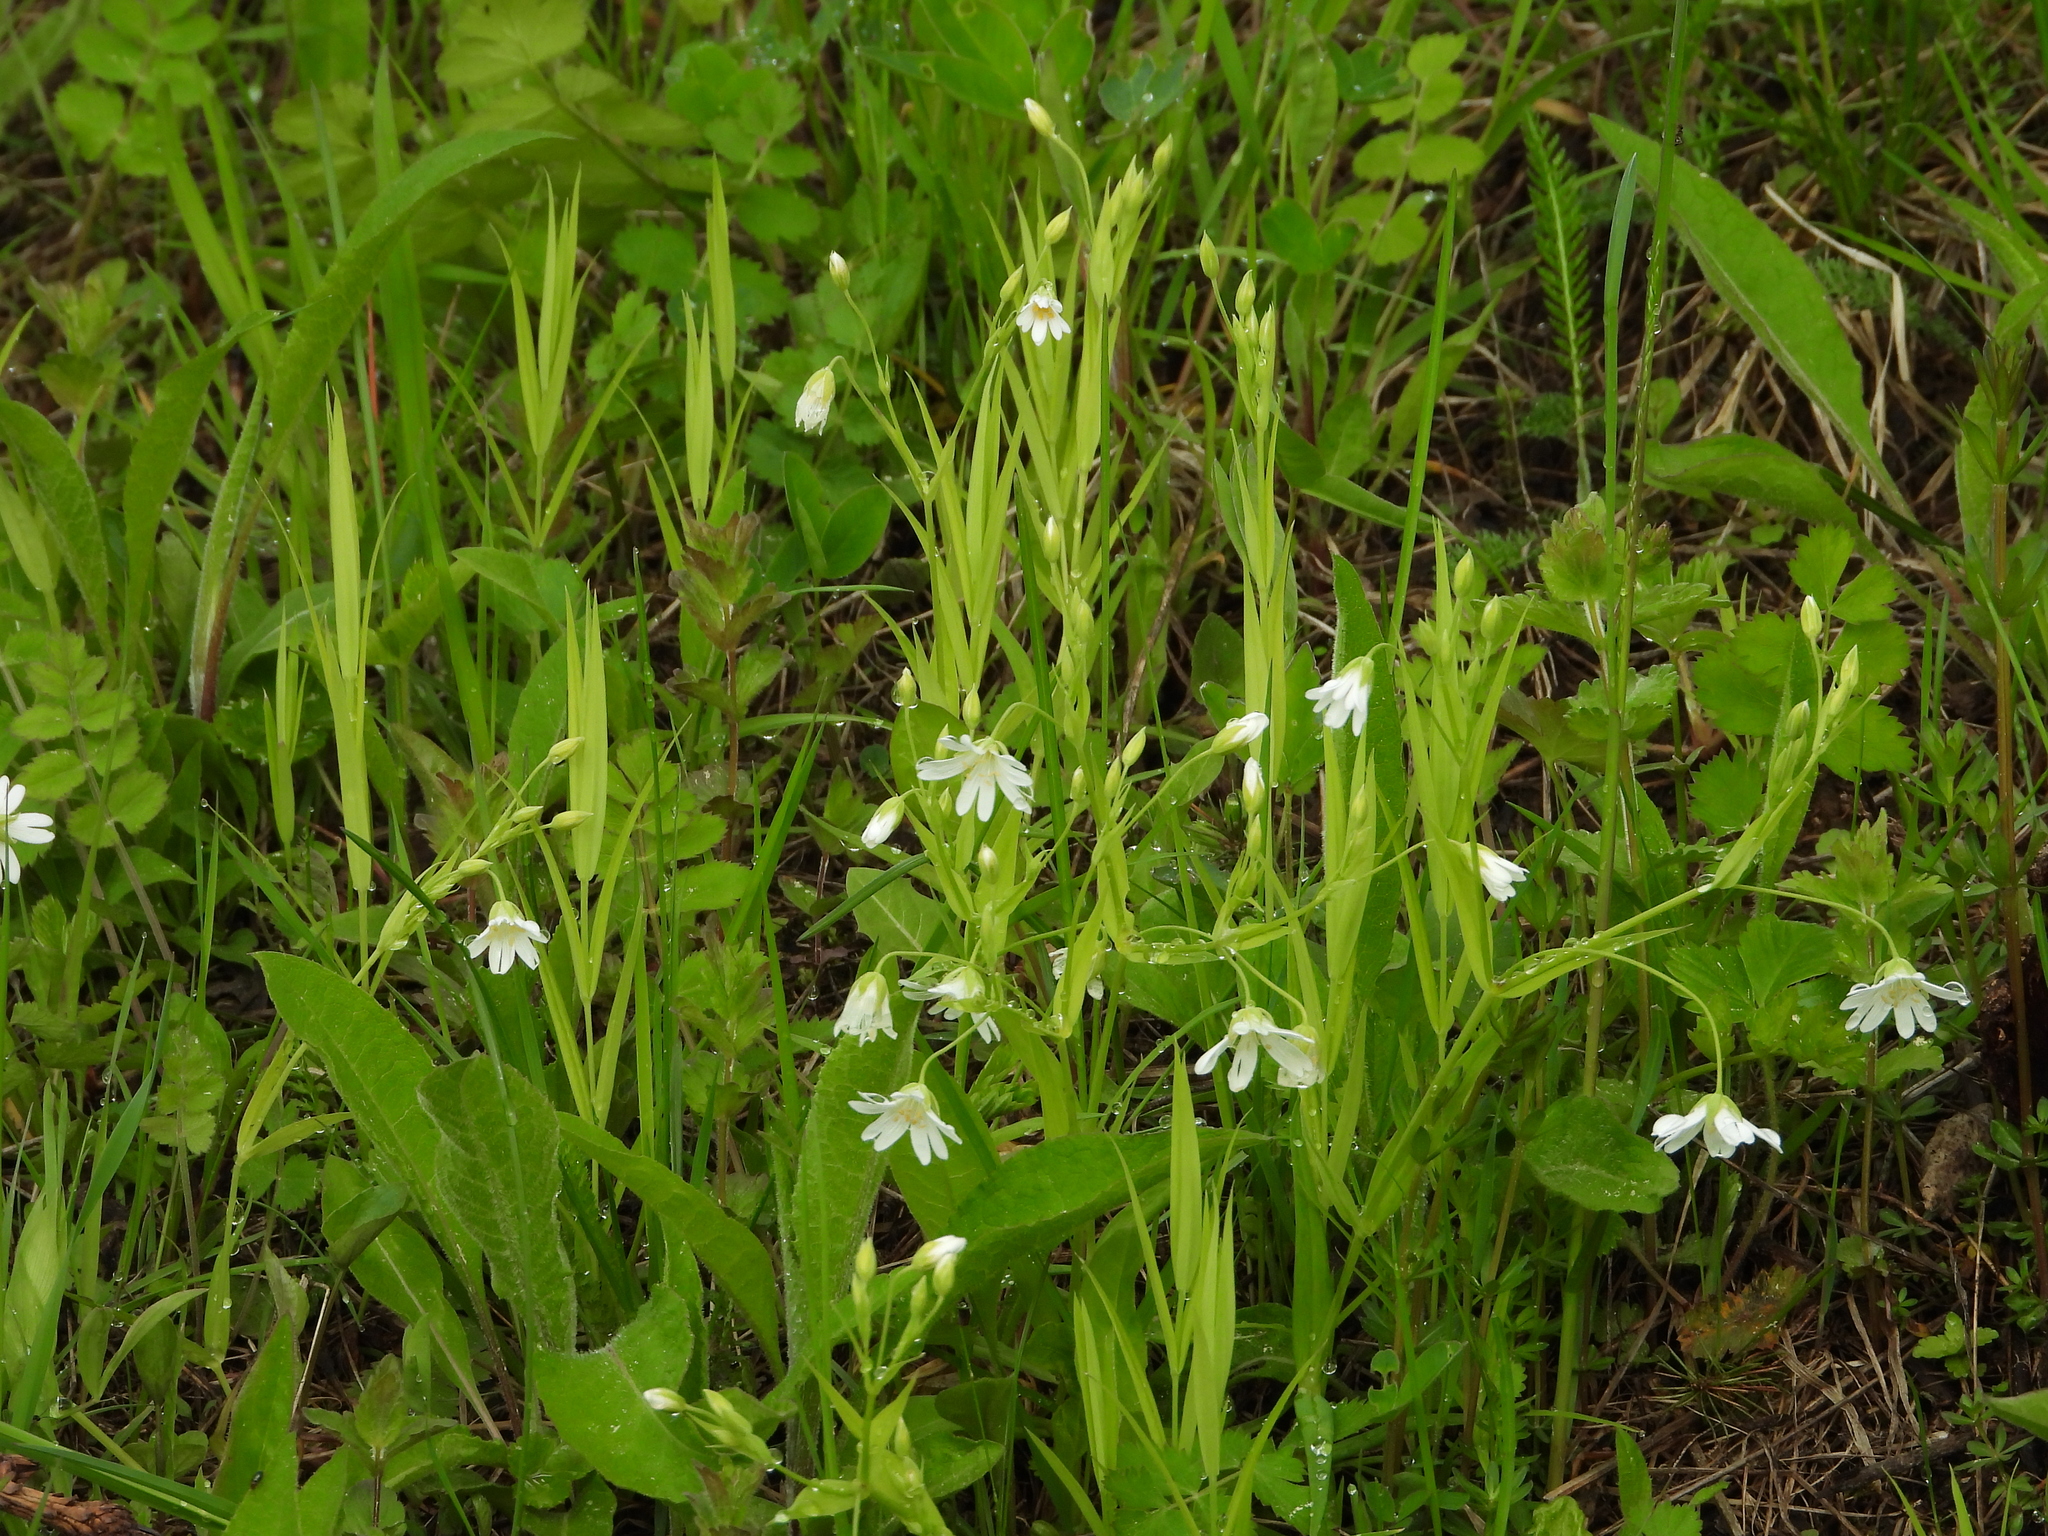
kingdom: Plantae
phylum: Tracheophyta
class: Magnoliopsida
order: Caryophyllales
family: Caryophyllaceae
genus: Rabelera
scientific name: Rabelera holostea
